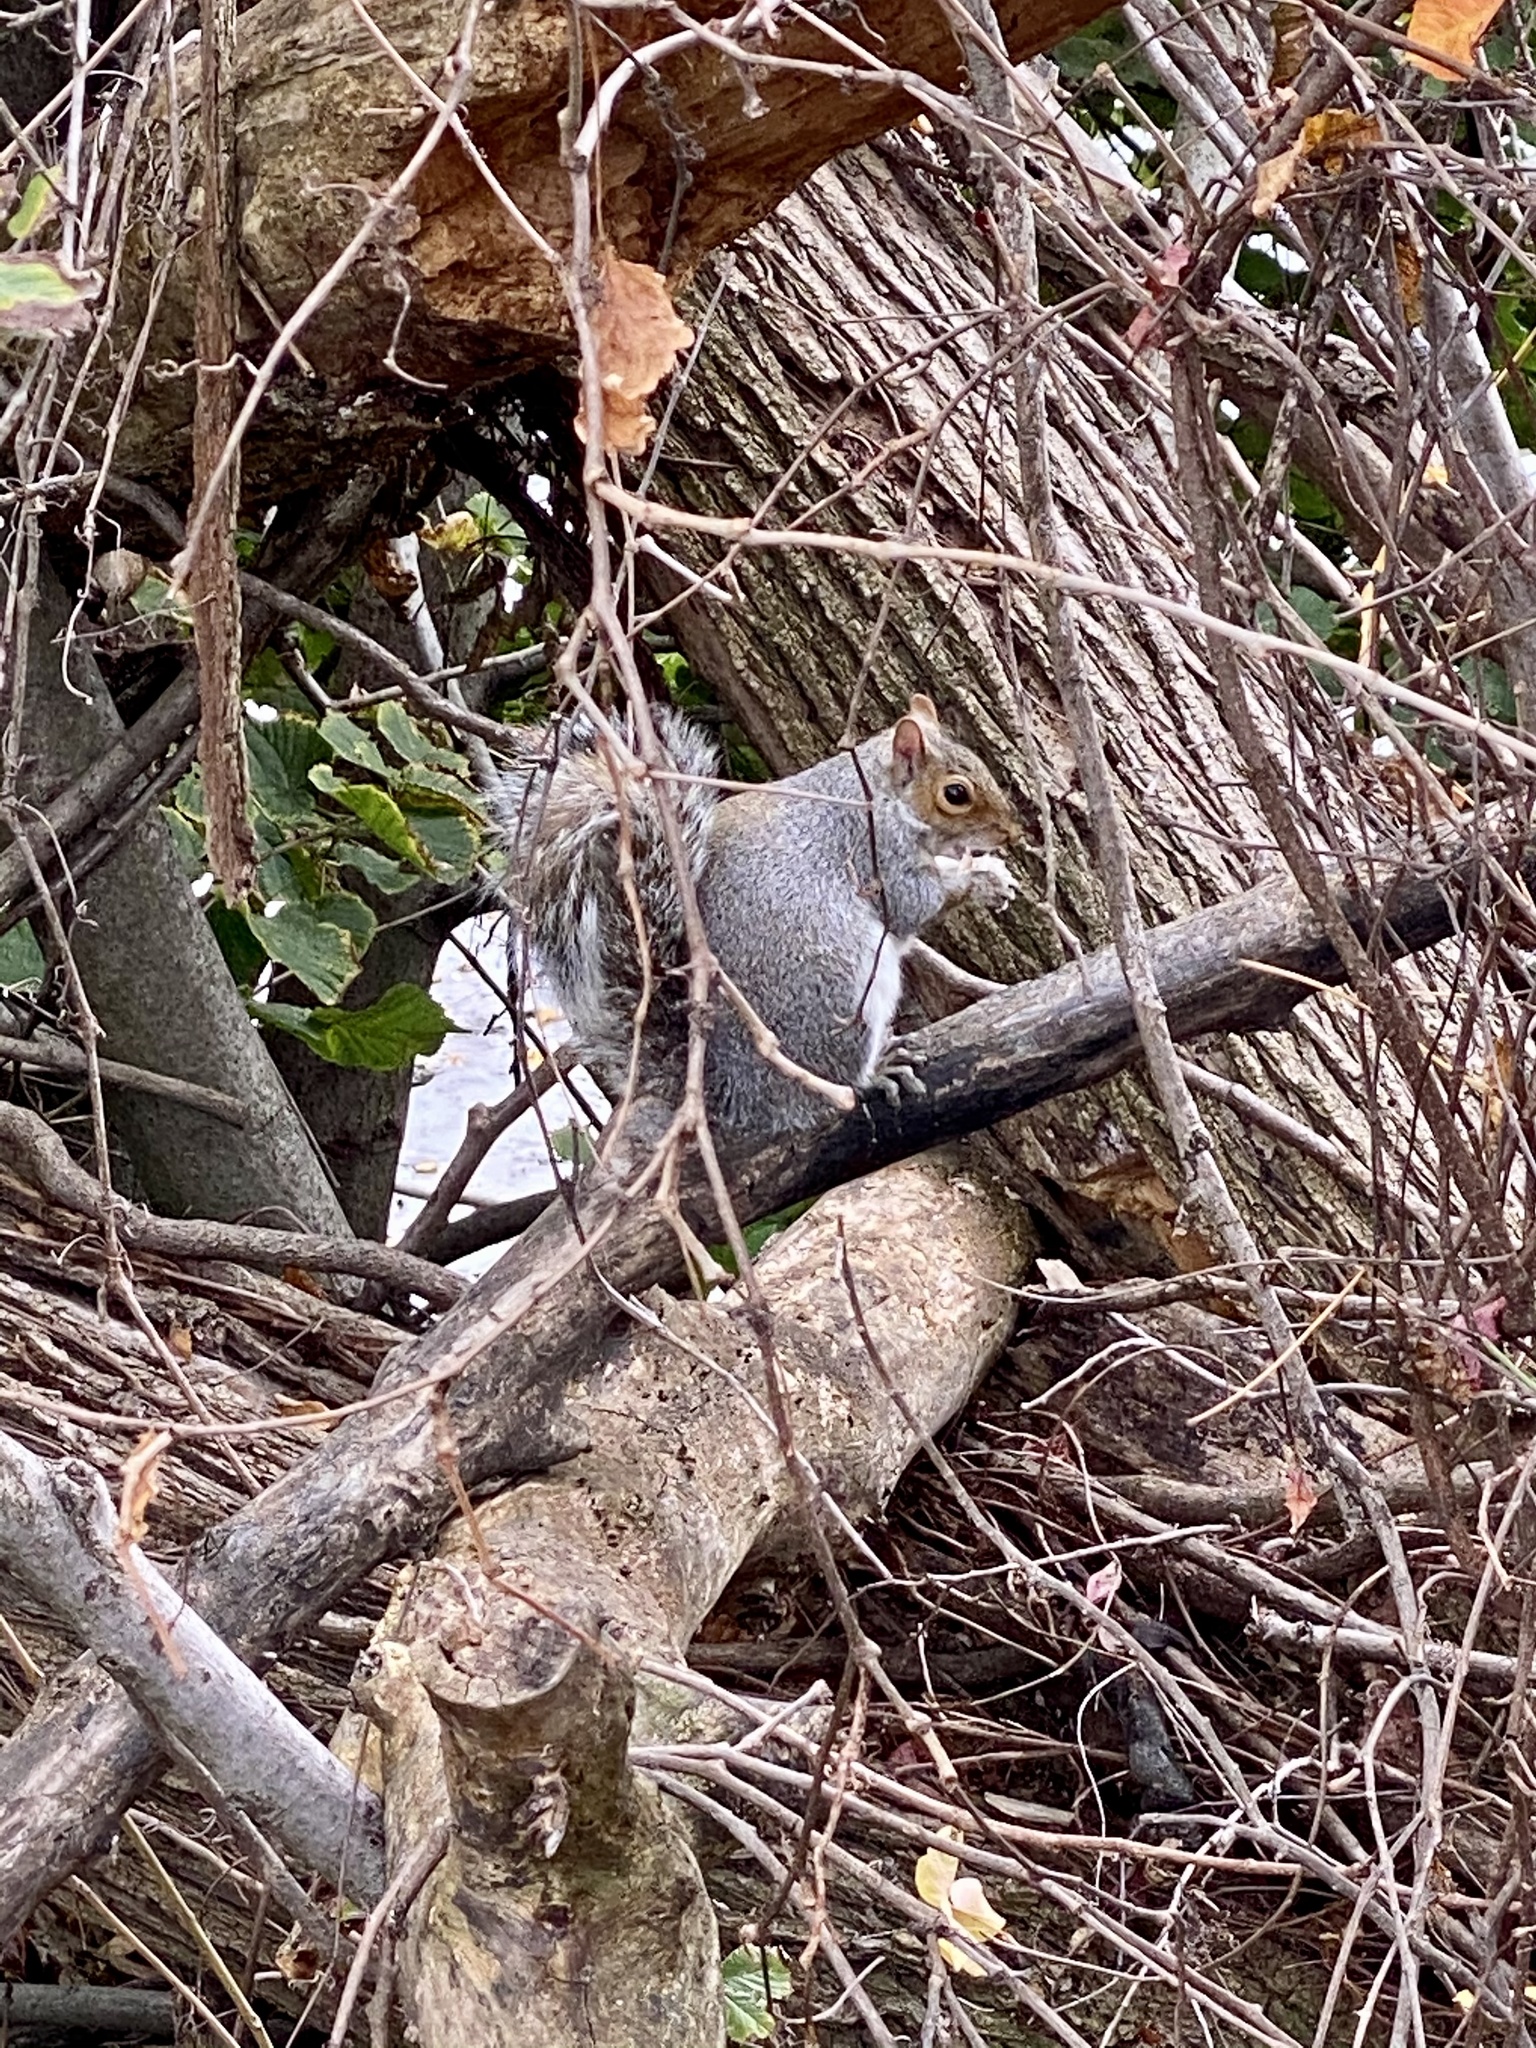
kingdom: Animalia
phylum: Chordata
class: Mammalia
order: Rodentia
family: Sciuridae
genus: Sciurus
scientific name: Sciurus carolinensis
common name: Eastern gray squirrel
